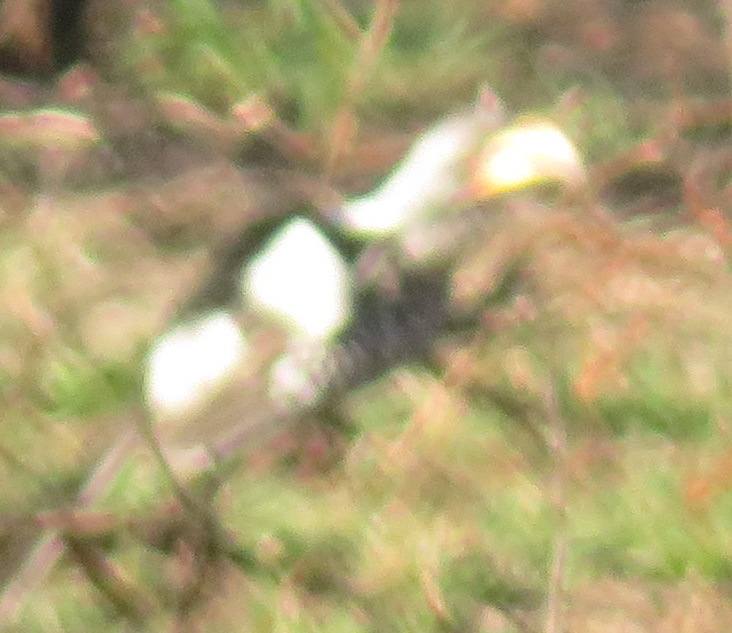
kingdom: Animalia
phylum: Chordata
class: Aves
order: Bucerotiformes
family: Bucerotidae
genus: Tockus
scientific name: Tockus leucomelas
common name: Southern yellow-billed hornbill
